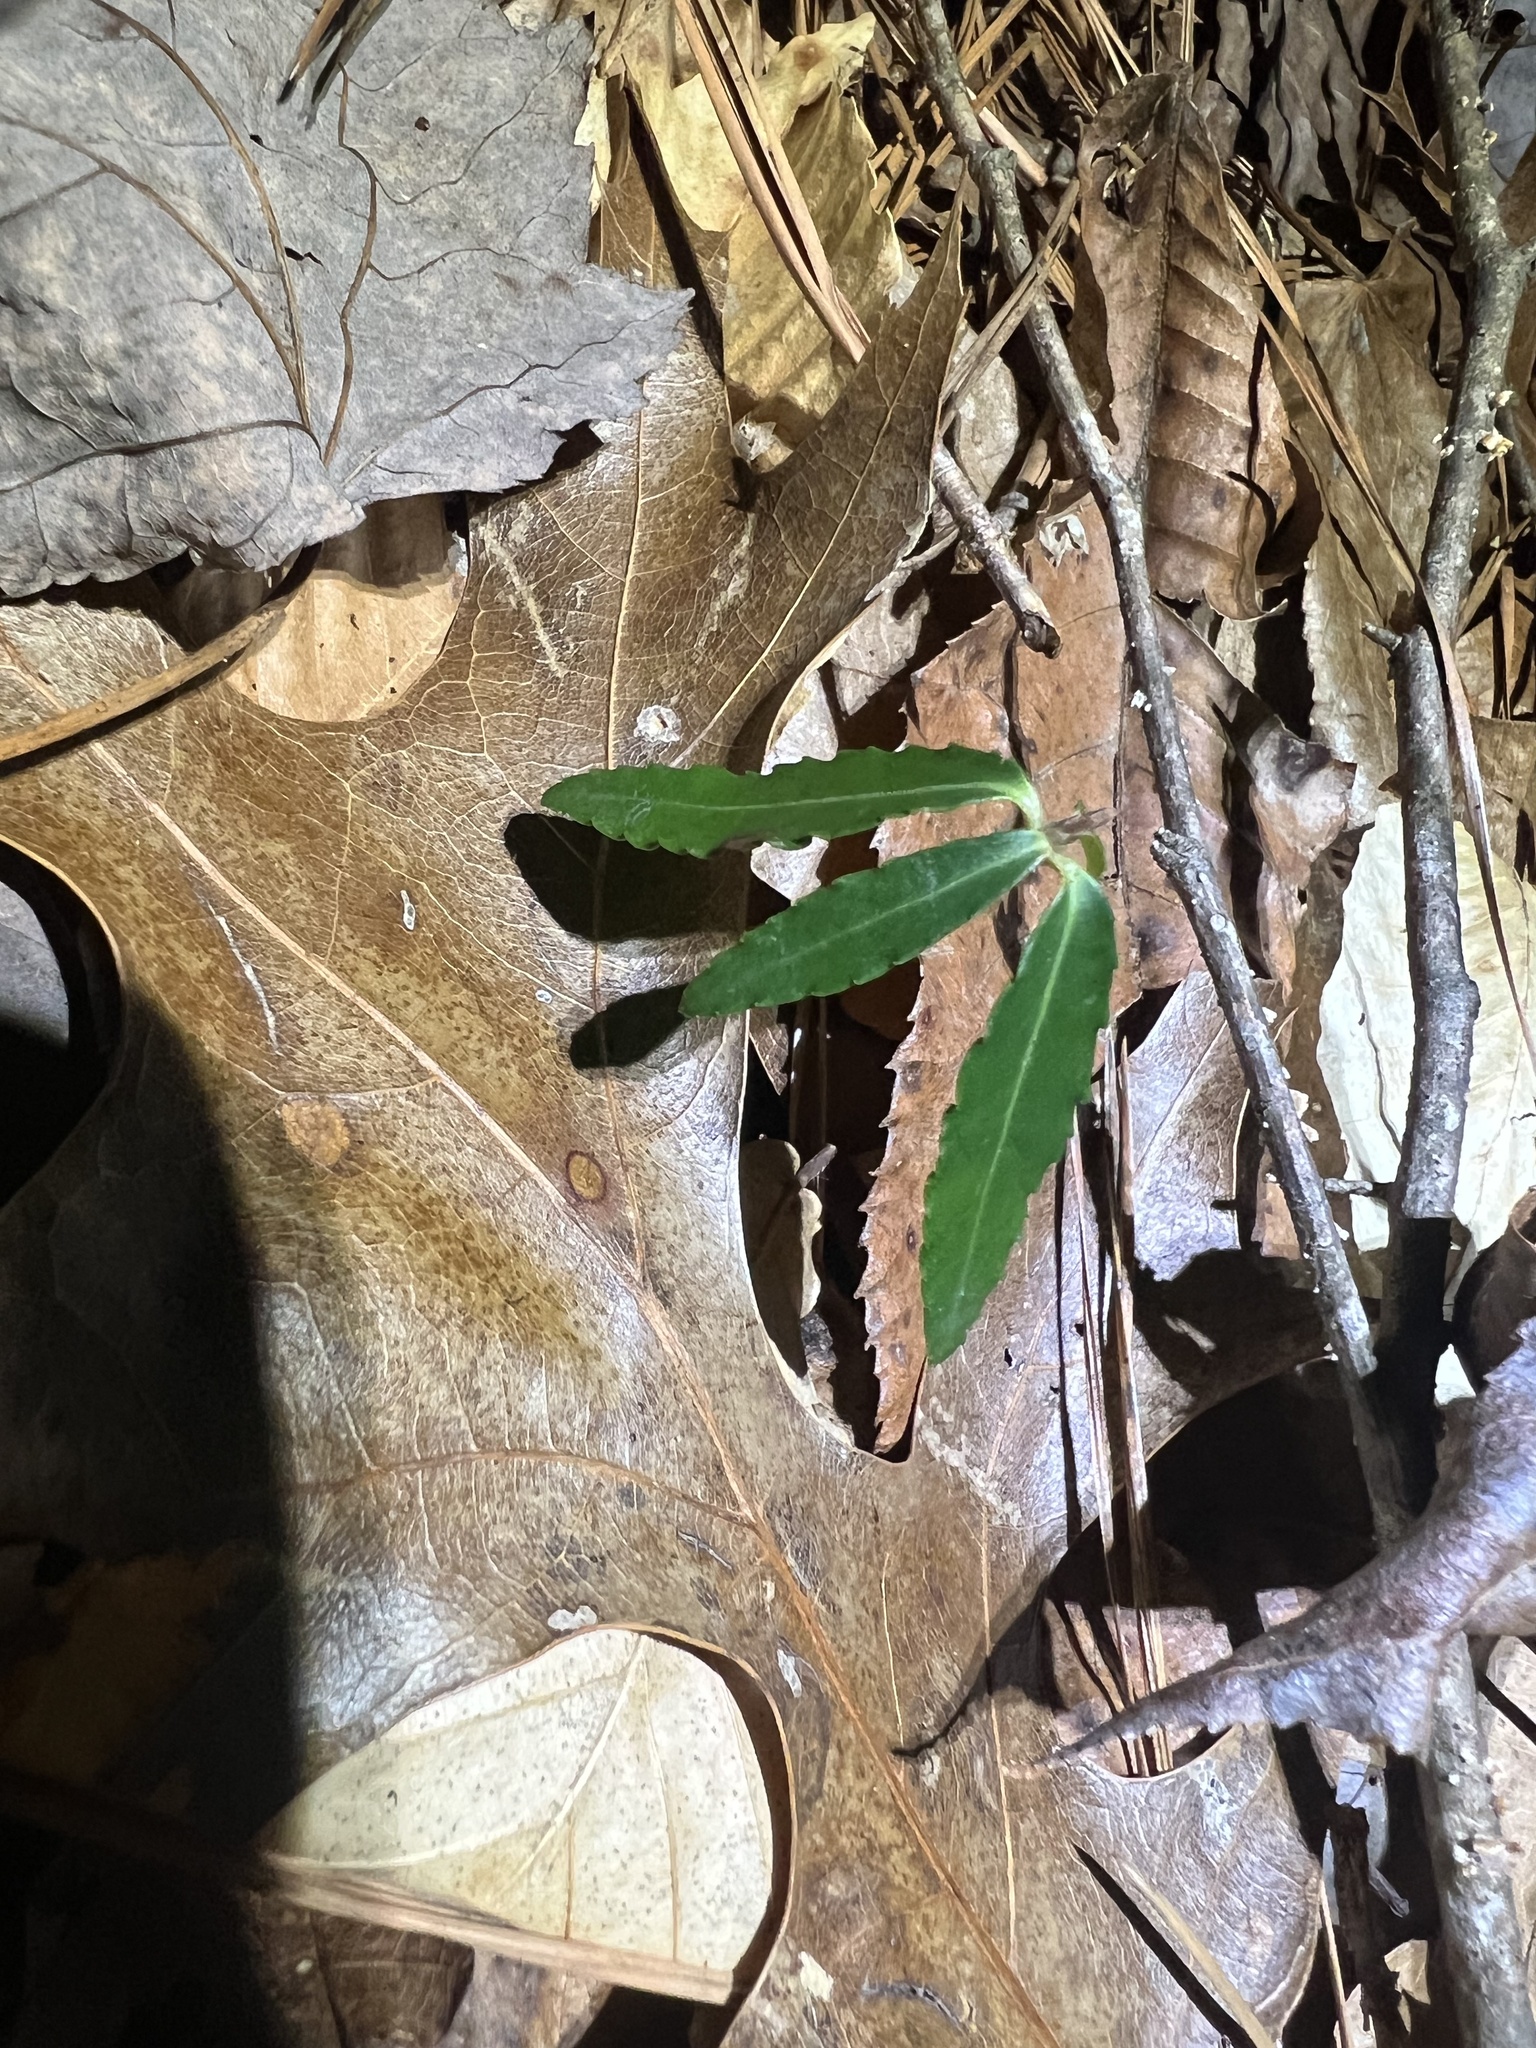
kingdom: Plantae
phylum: Tracheophyta
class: Magnoliopsida
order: Celastrales
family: Celastraceae
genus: Euonymus
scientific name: Euonymus americanus
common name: Bursting-heart
